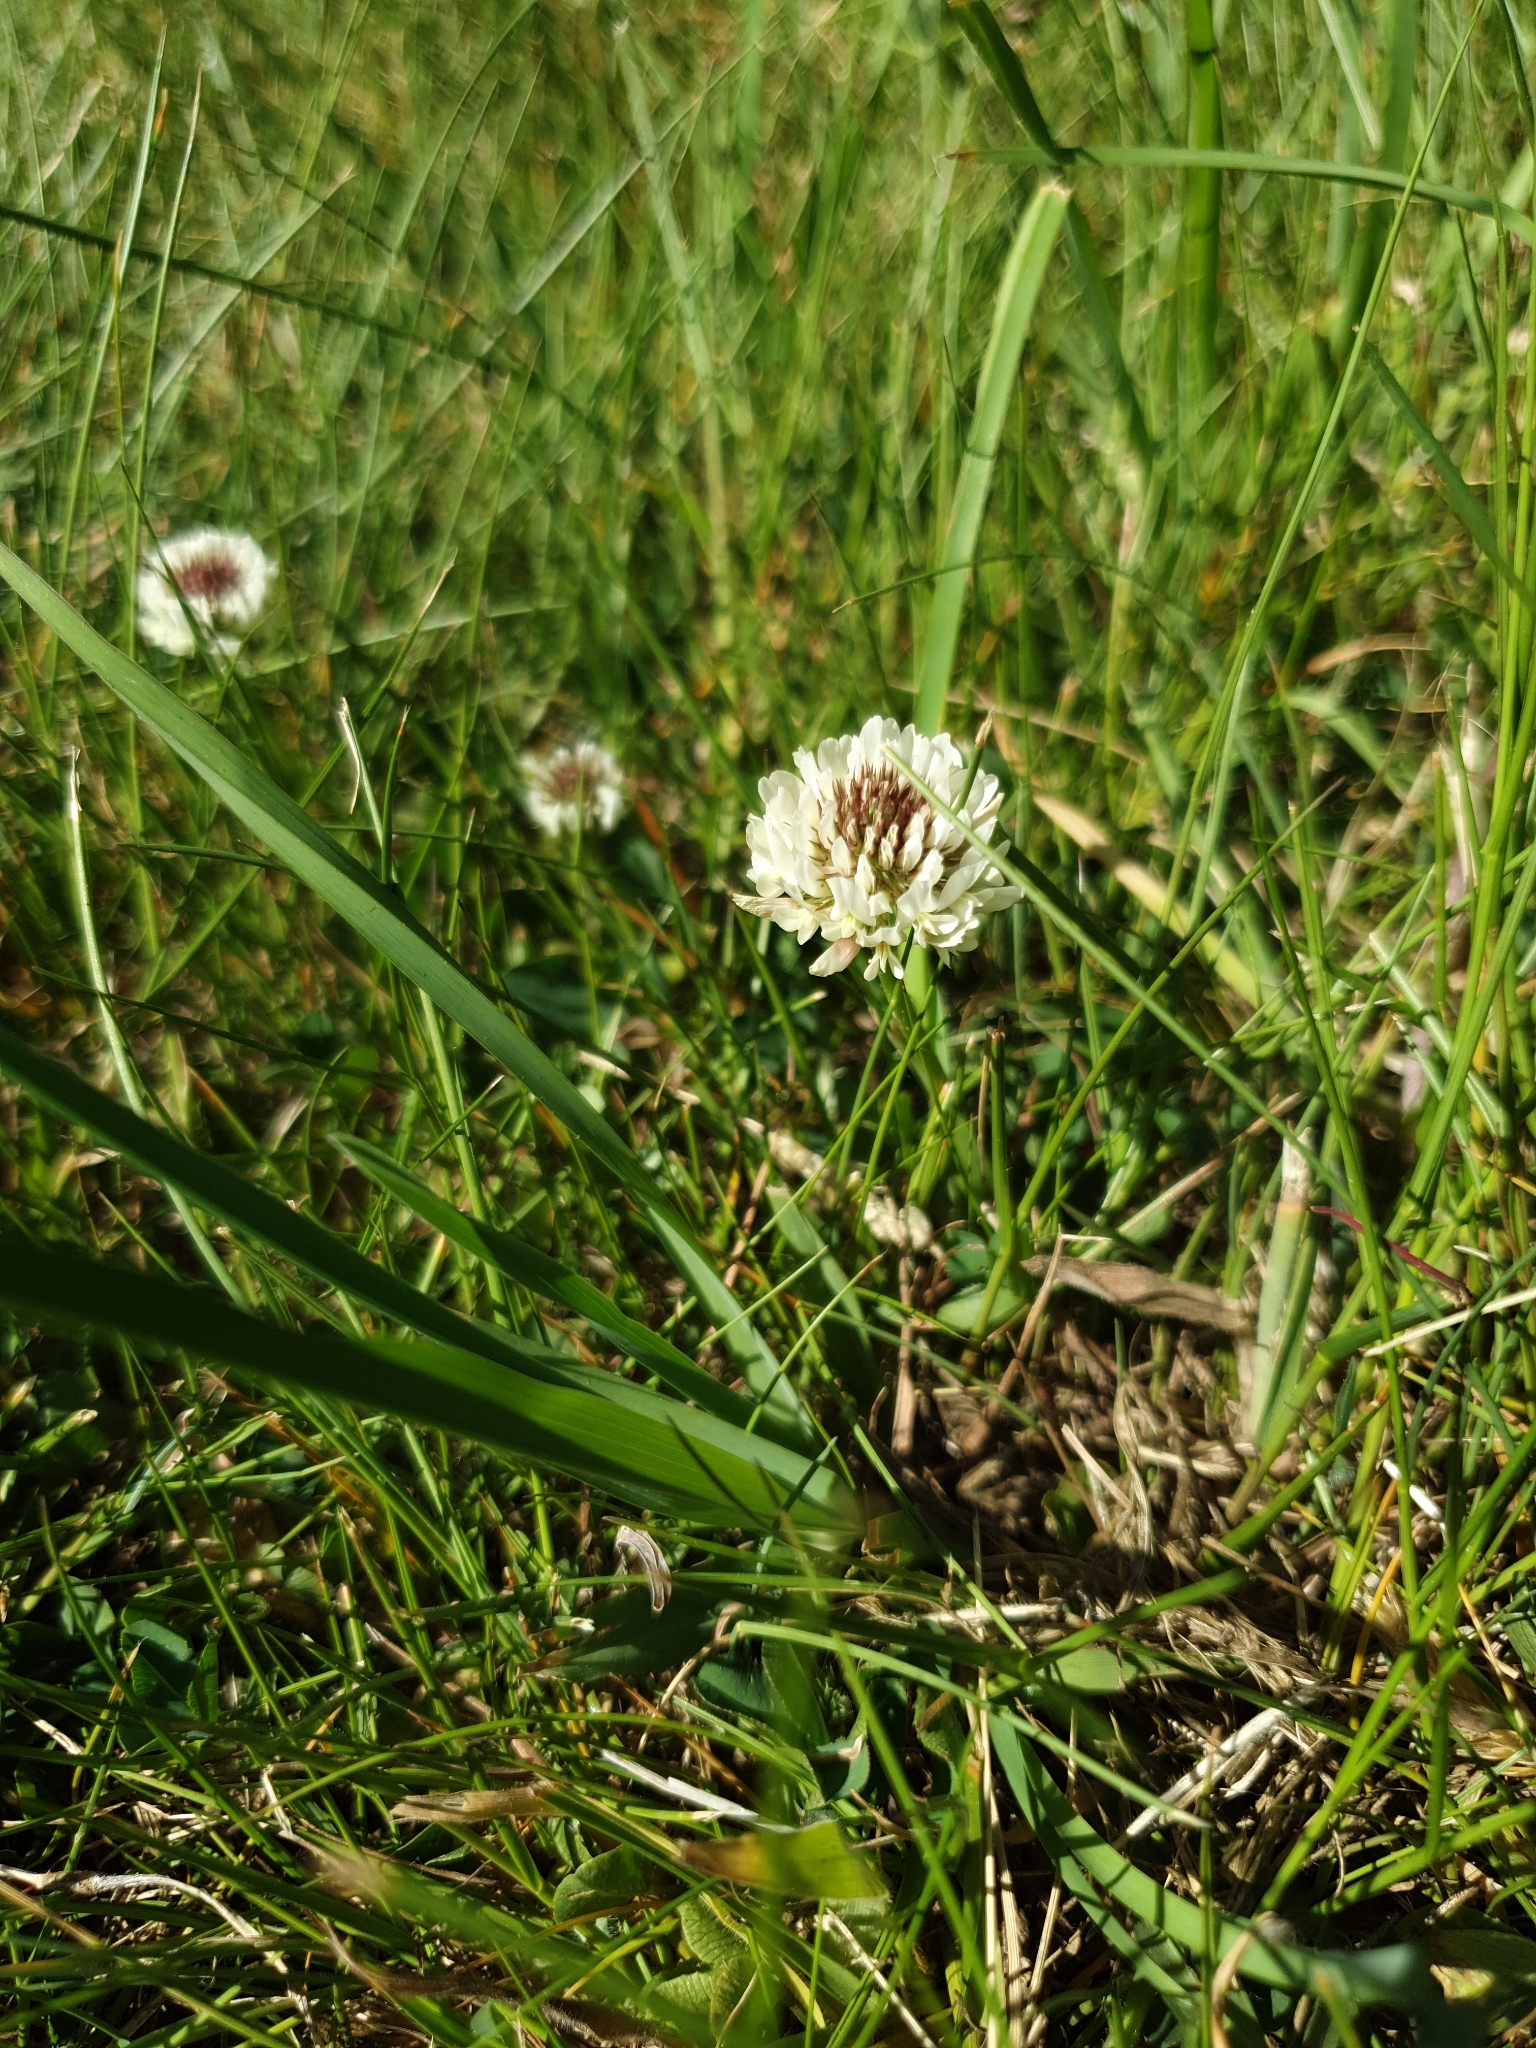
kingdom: Plantae
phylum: Tracheophyta
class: Magnoliopsida
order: Fabales
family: Fabaceae
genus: Trifolium
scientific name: Trifolium repens
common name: White clover
